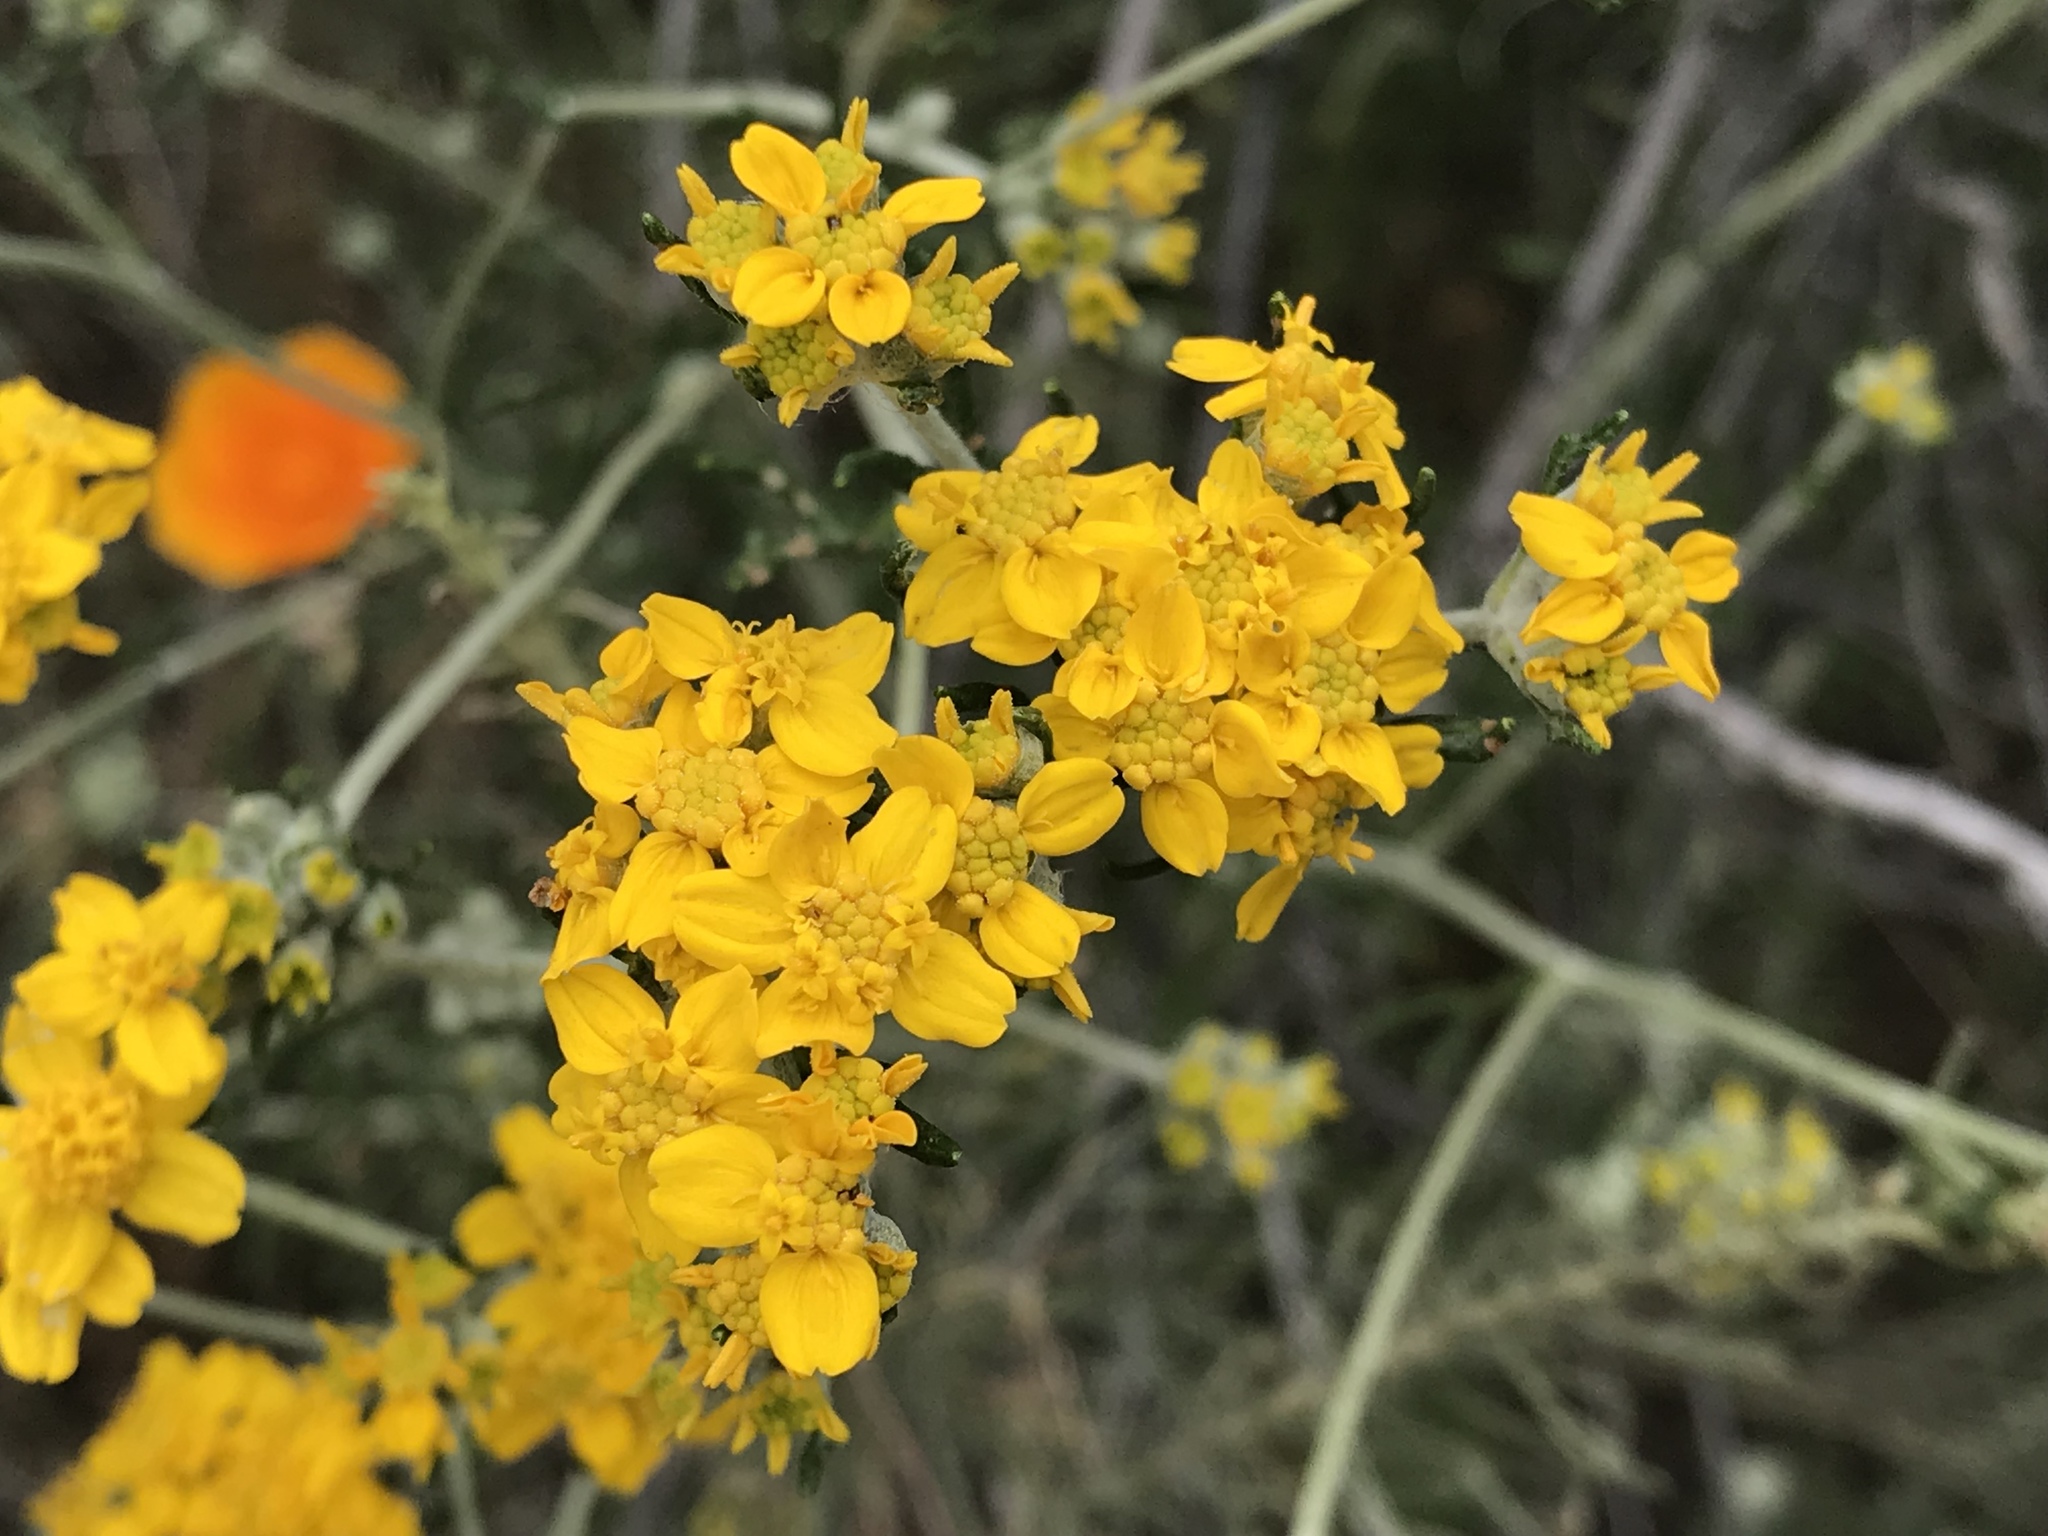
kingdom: Plantae
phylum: Tracheophyta
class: Magnoliopsida
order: Asterales
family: Asteraceae
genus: Eriophyllum
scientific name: Eriophyllum confertiflorum
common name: Golden-yarrow
